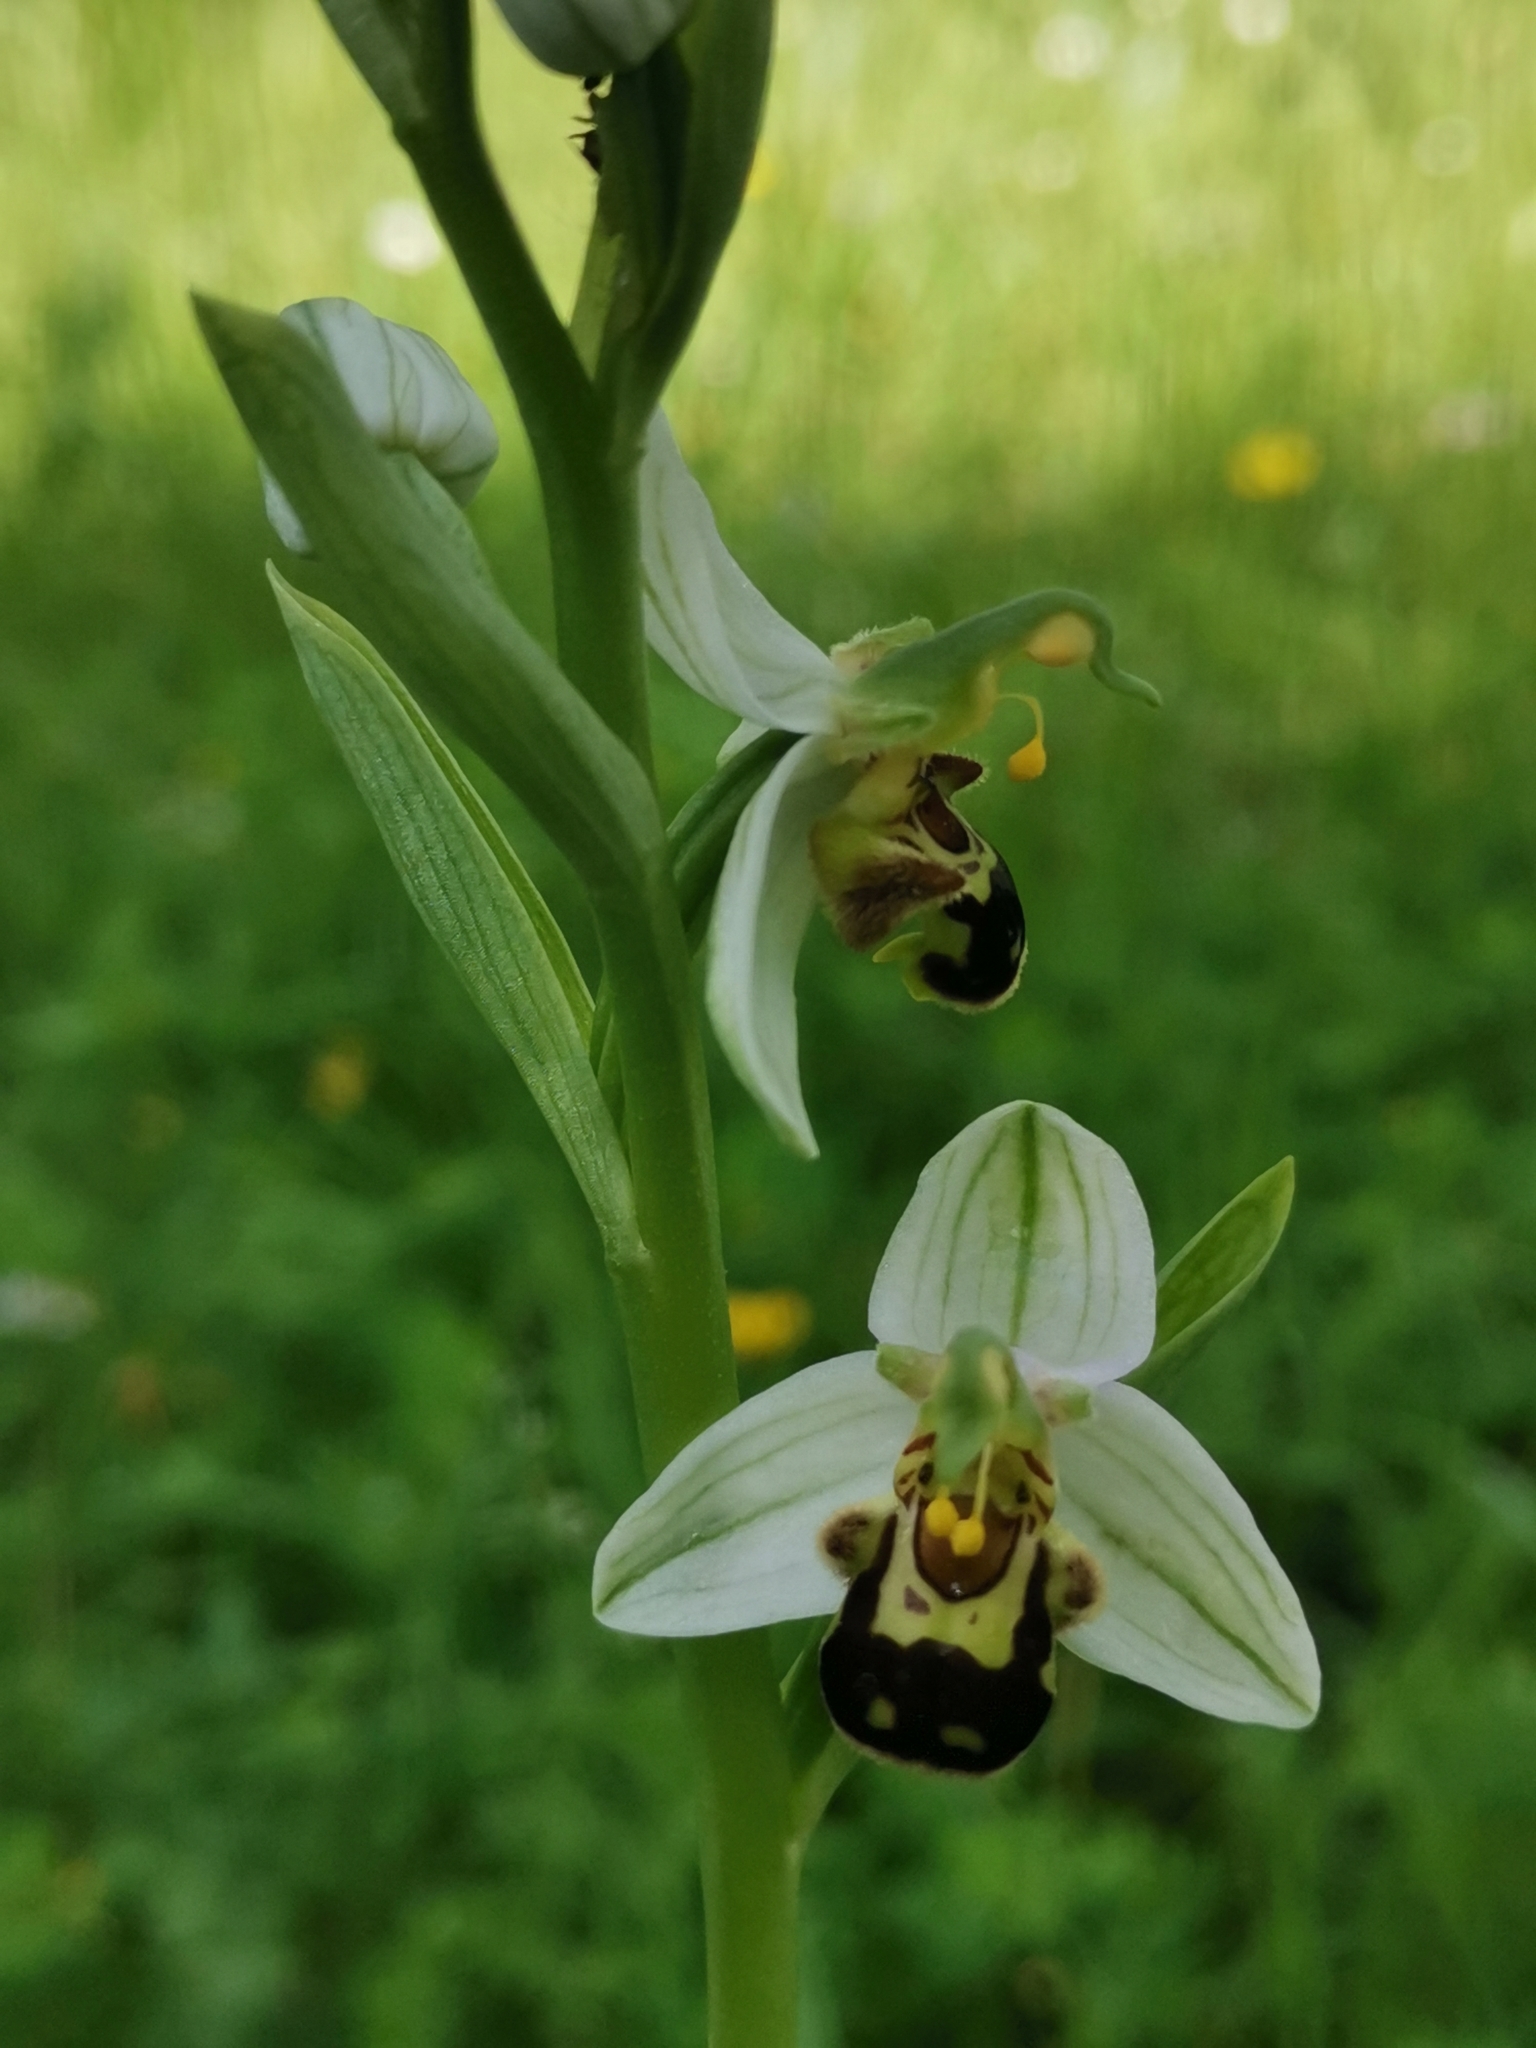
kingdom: Plantae
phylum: Tracheophyta
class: Liliopsida
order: Asparagales
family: Orchidaceae
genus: Ophrys
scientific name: Ophrys apifera
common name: Bee orchid
